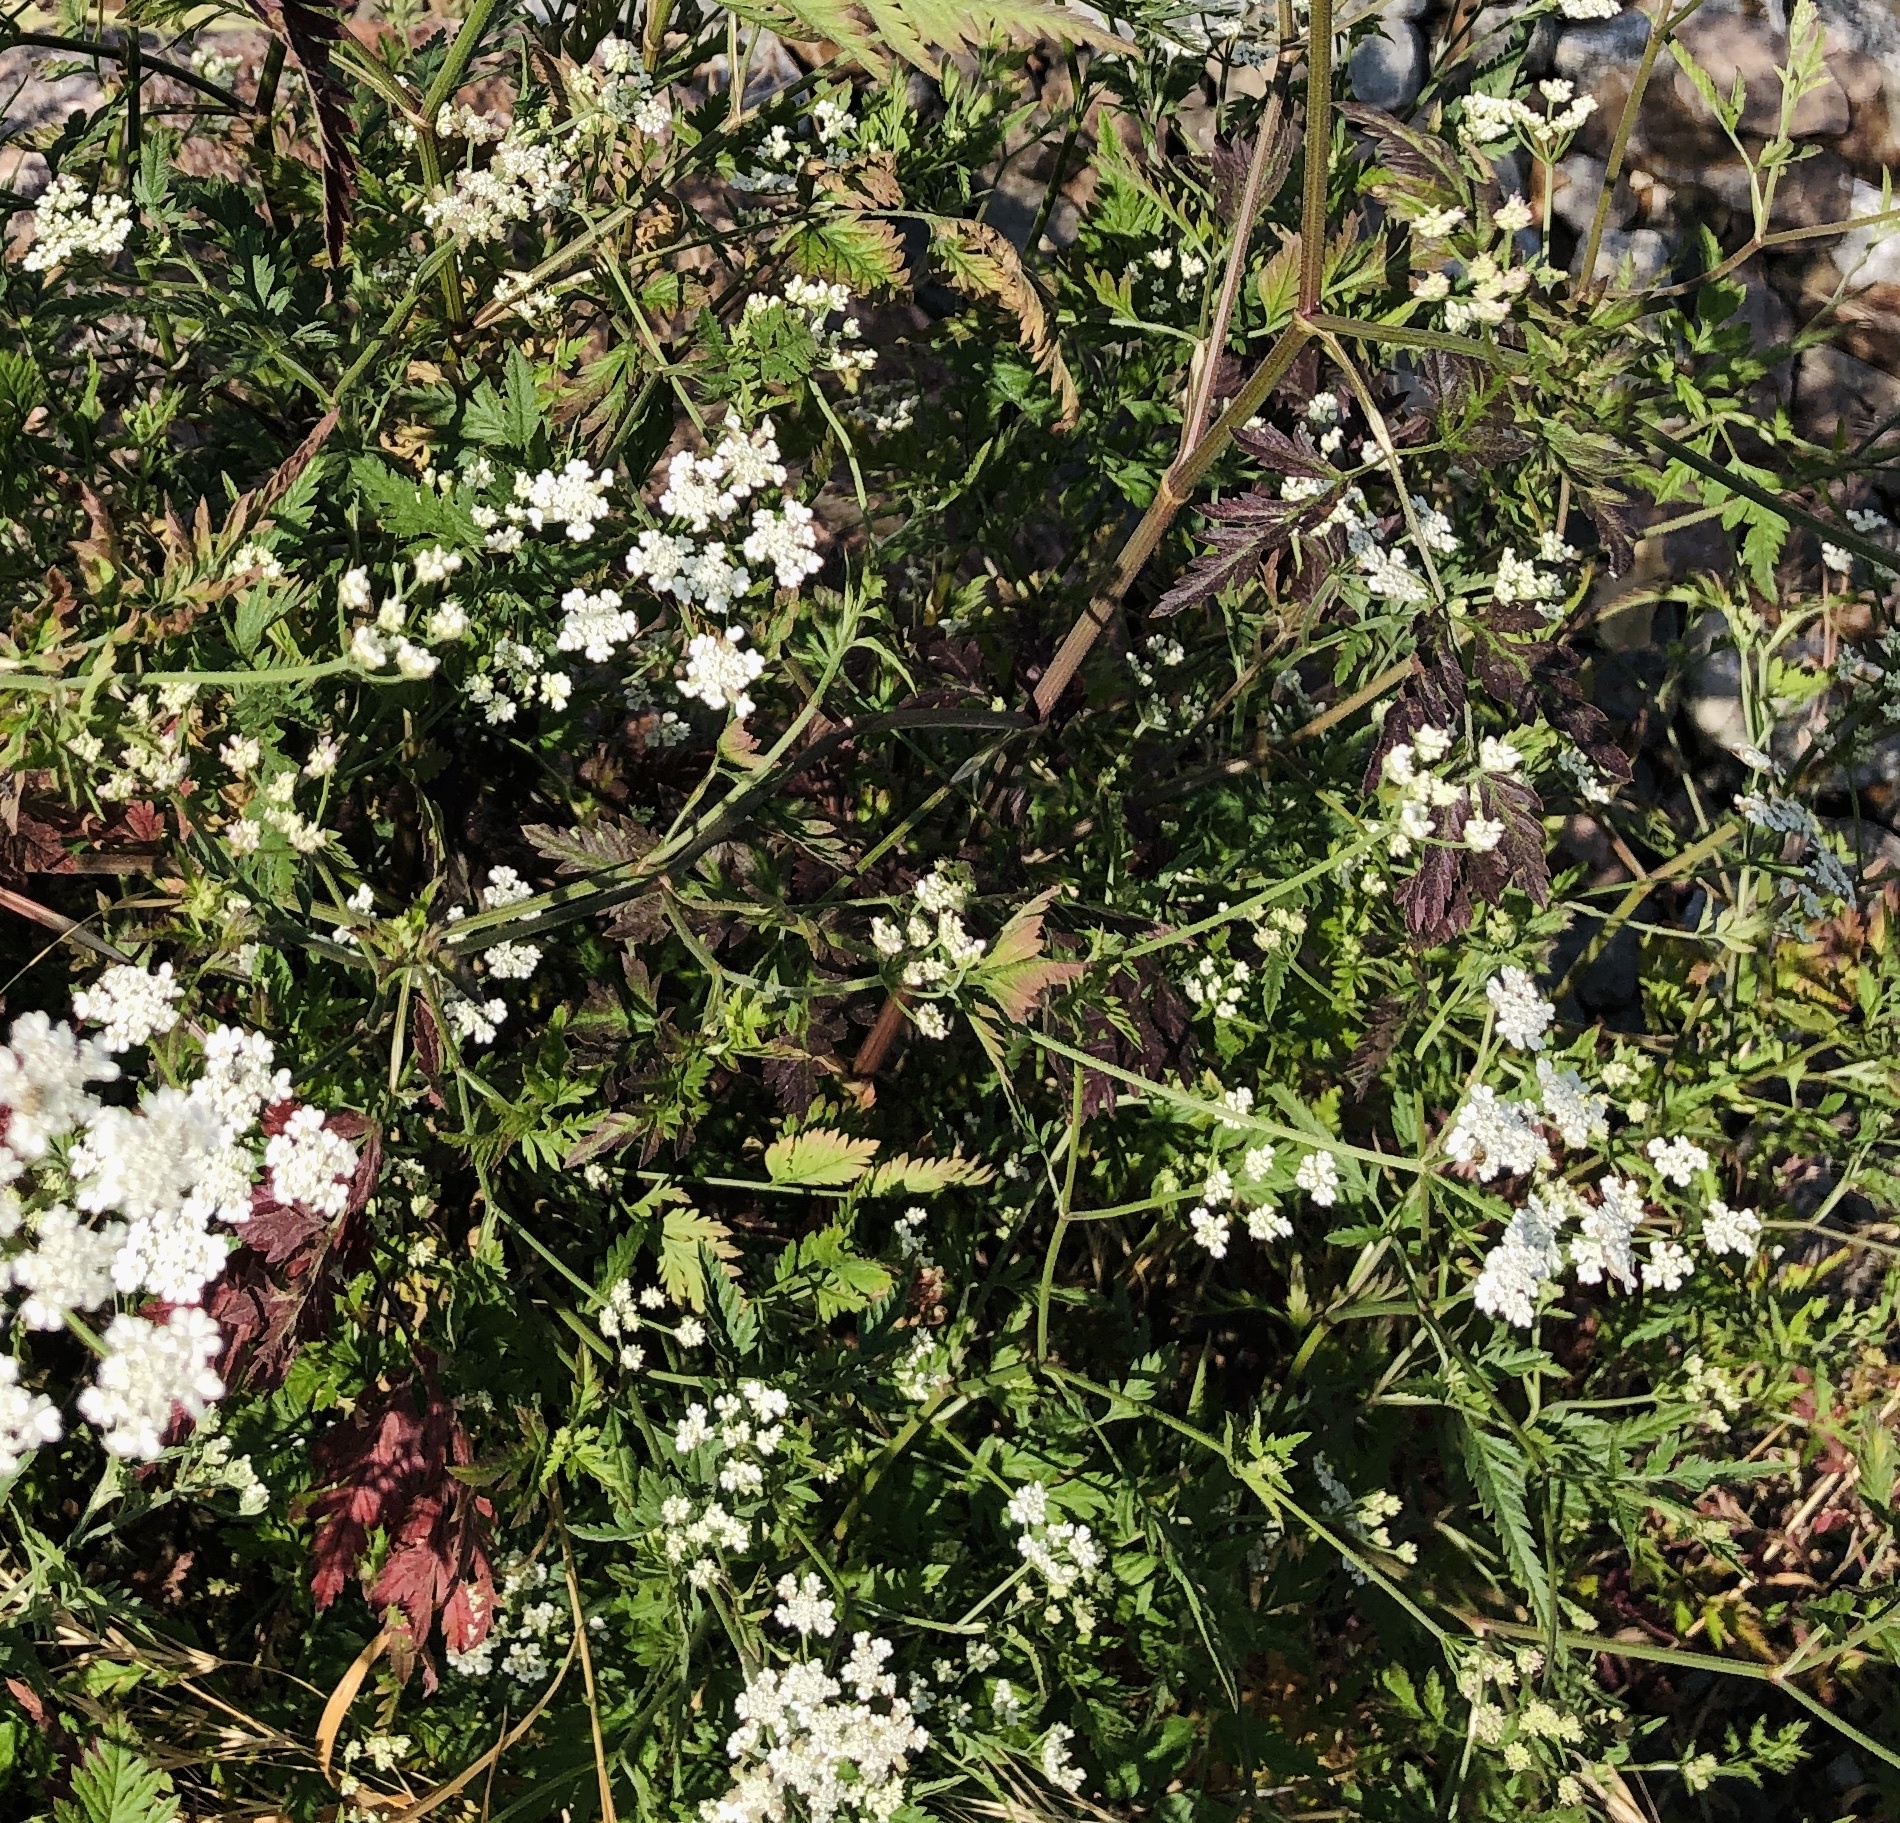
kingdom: Plantae
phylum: Tracheophyta
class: Magnoliopsida
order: Apiales
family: Apiaceae
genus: Torilis
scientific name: Torilis arvensis
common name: Spreading hedge-parsley
